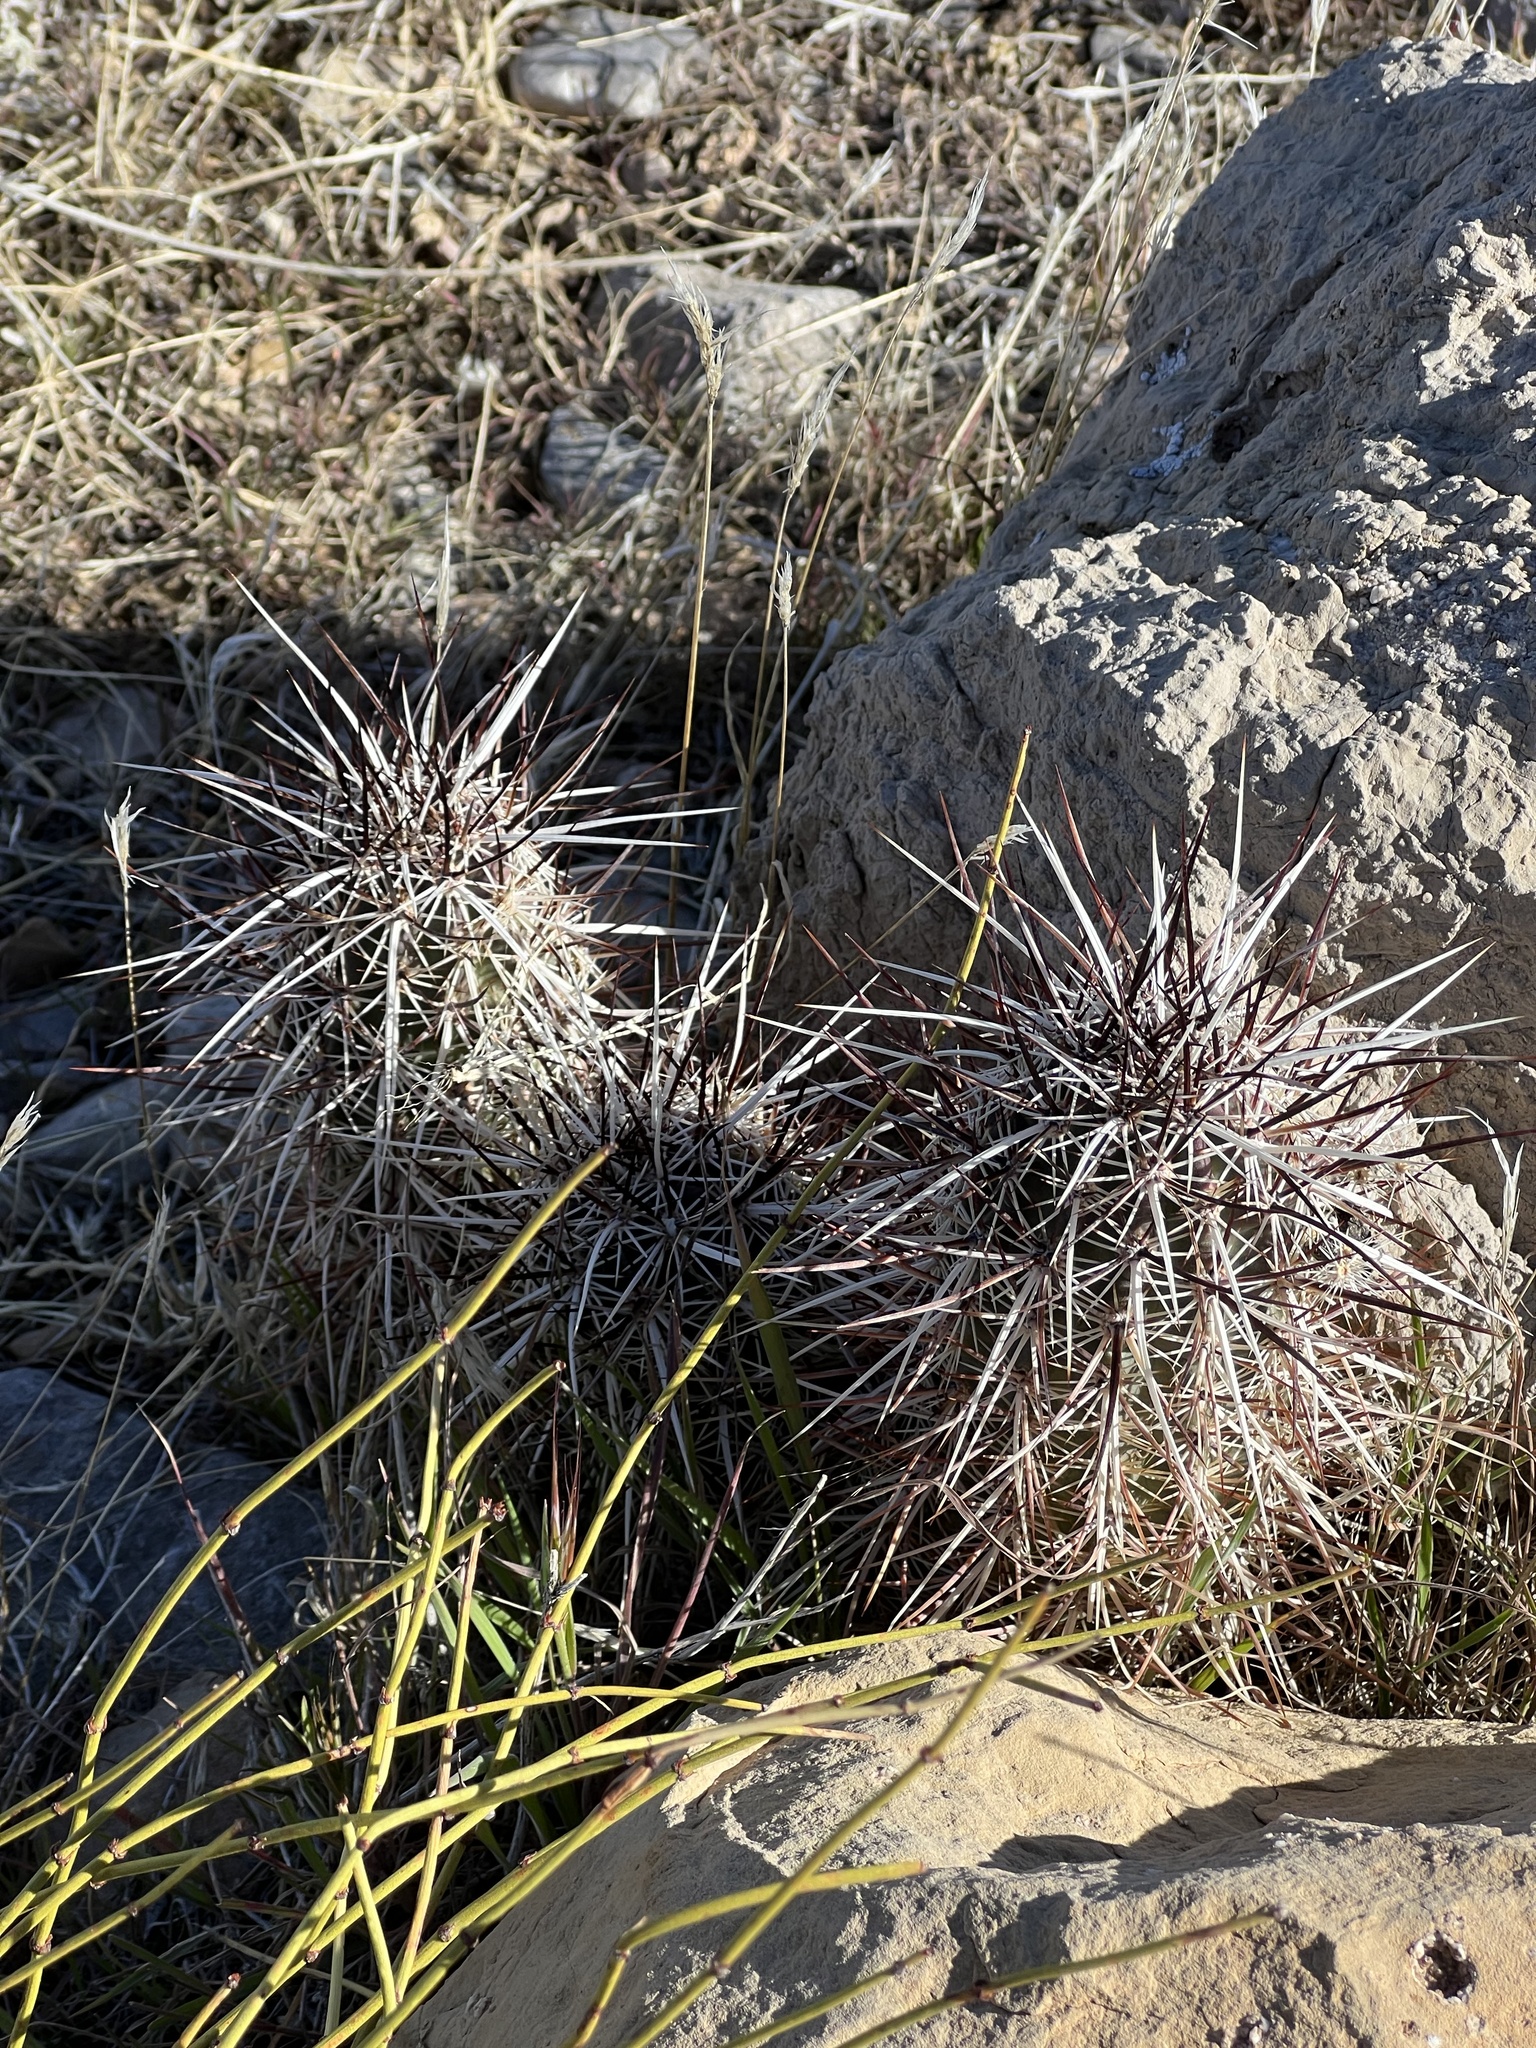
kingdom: Plantae
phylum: Tracheophyta
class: Magnoliopsida
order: Caryophyllales
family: Cactaceae
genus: Echinocereus
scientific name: Echinocereus engelmannii
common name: Engelmann's hedgehog cactus
